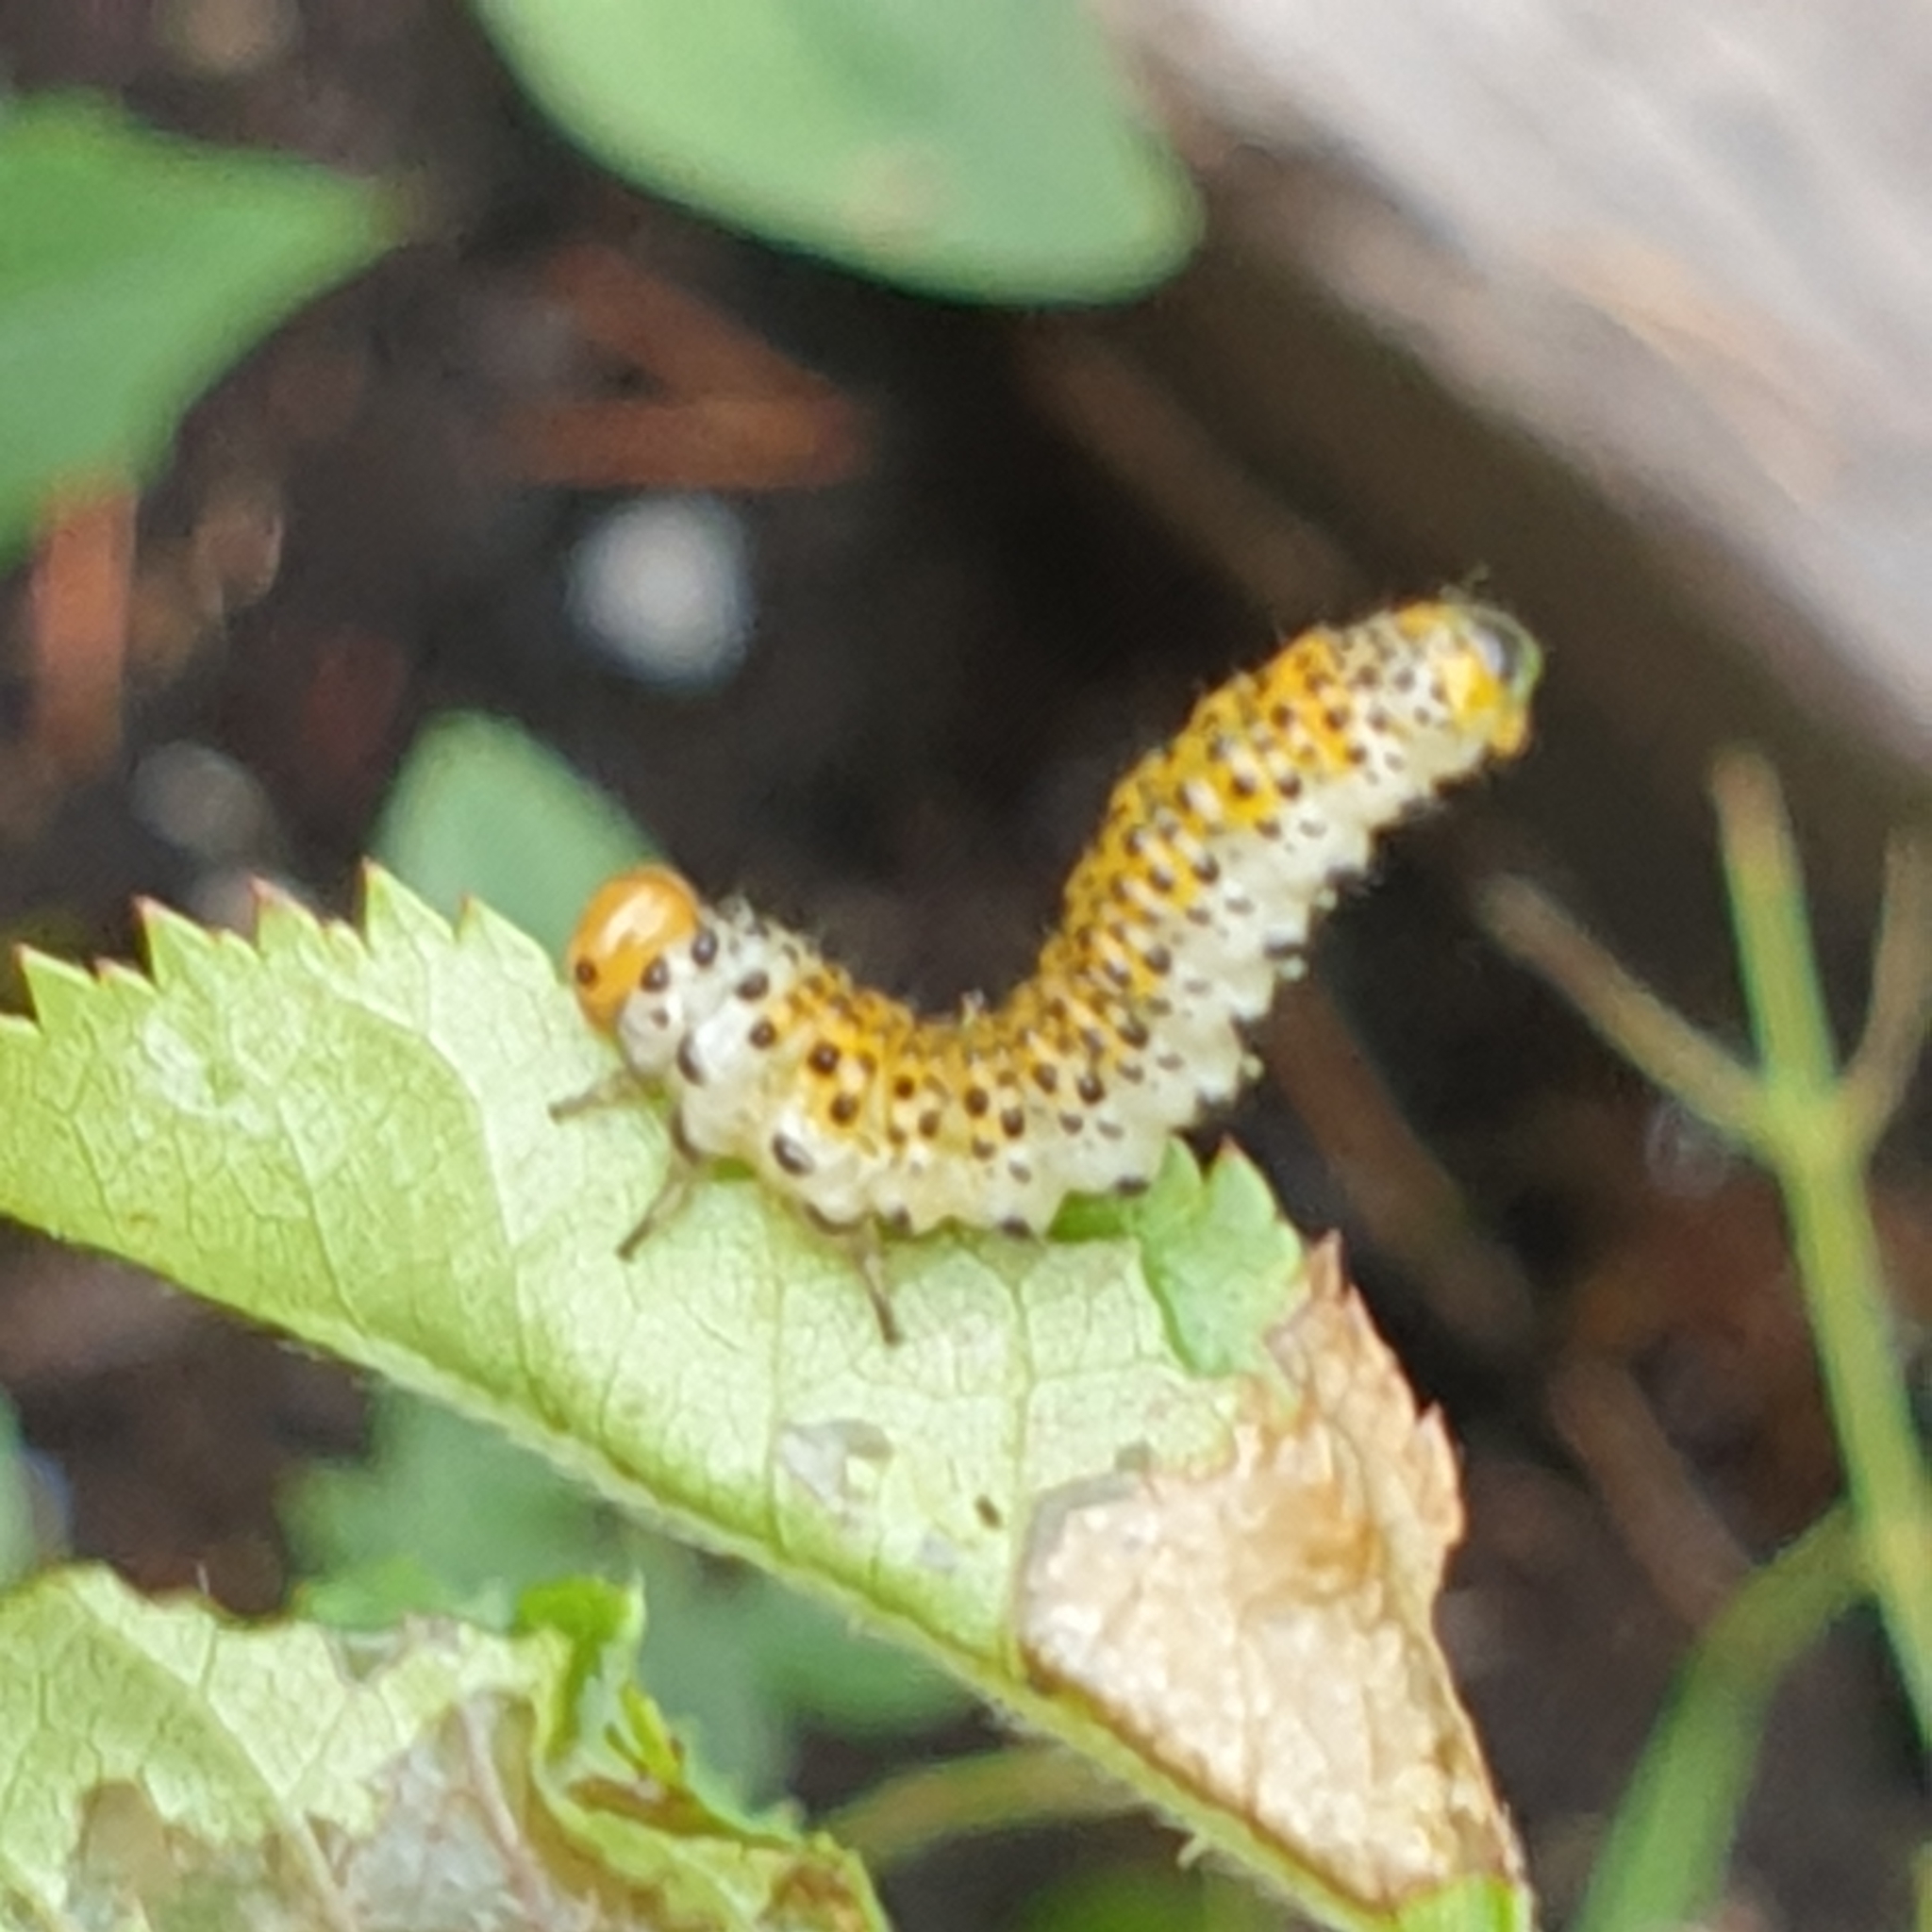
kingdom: Animalia
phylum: Arthropoda
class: Insecta
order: Hymenoptera
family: Argidae
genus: Arge
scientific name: Arge ochropus
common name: Argid sawfly
